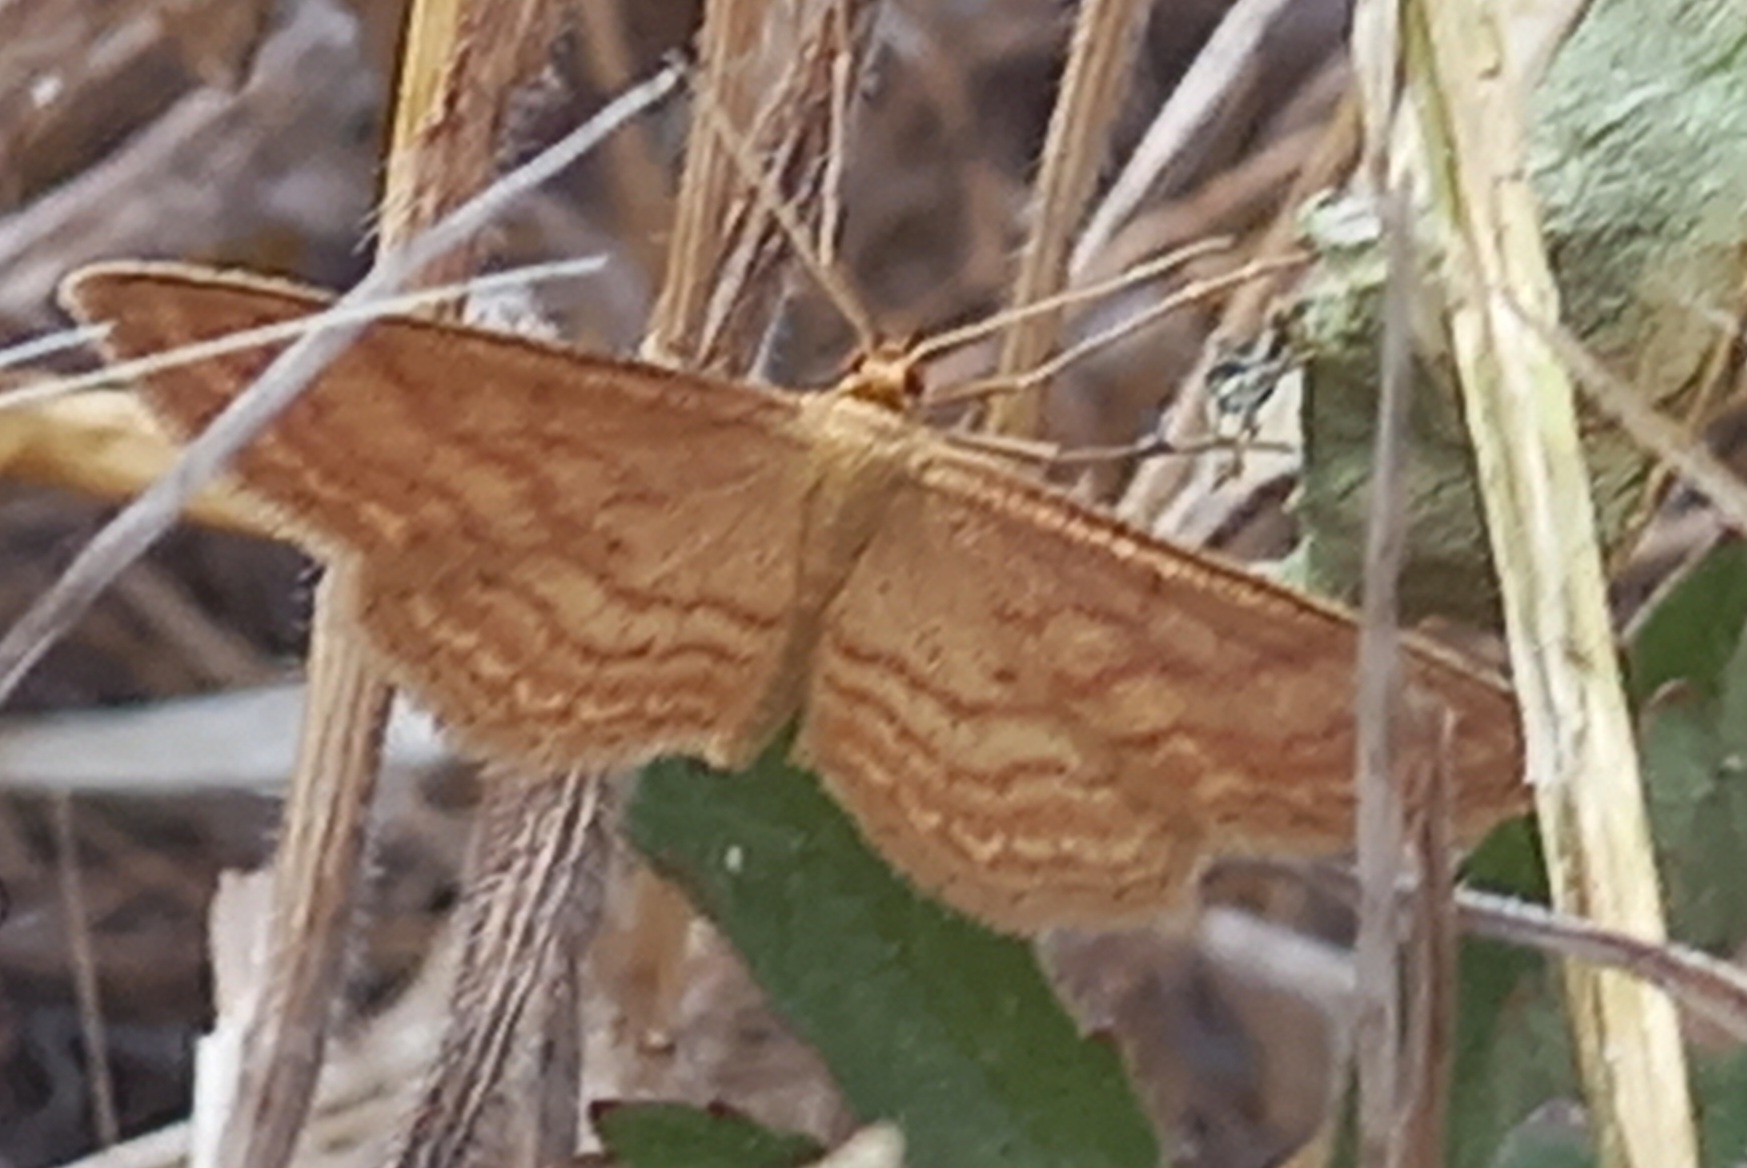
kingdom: Animalia
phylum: Arthropoda
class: Insecta
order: Lepidoptera
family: Geometridae
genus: Idaea
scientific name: Idaea ochrata
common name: Bright wave
